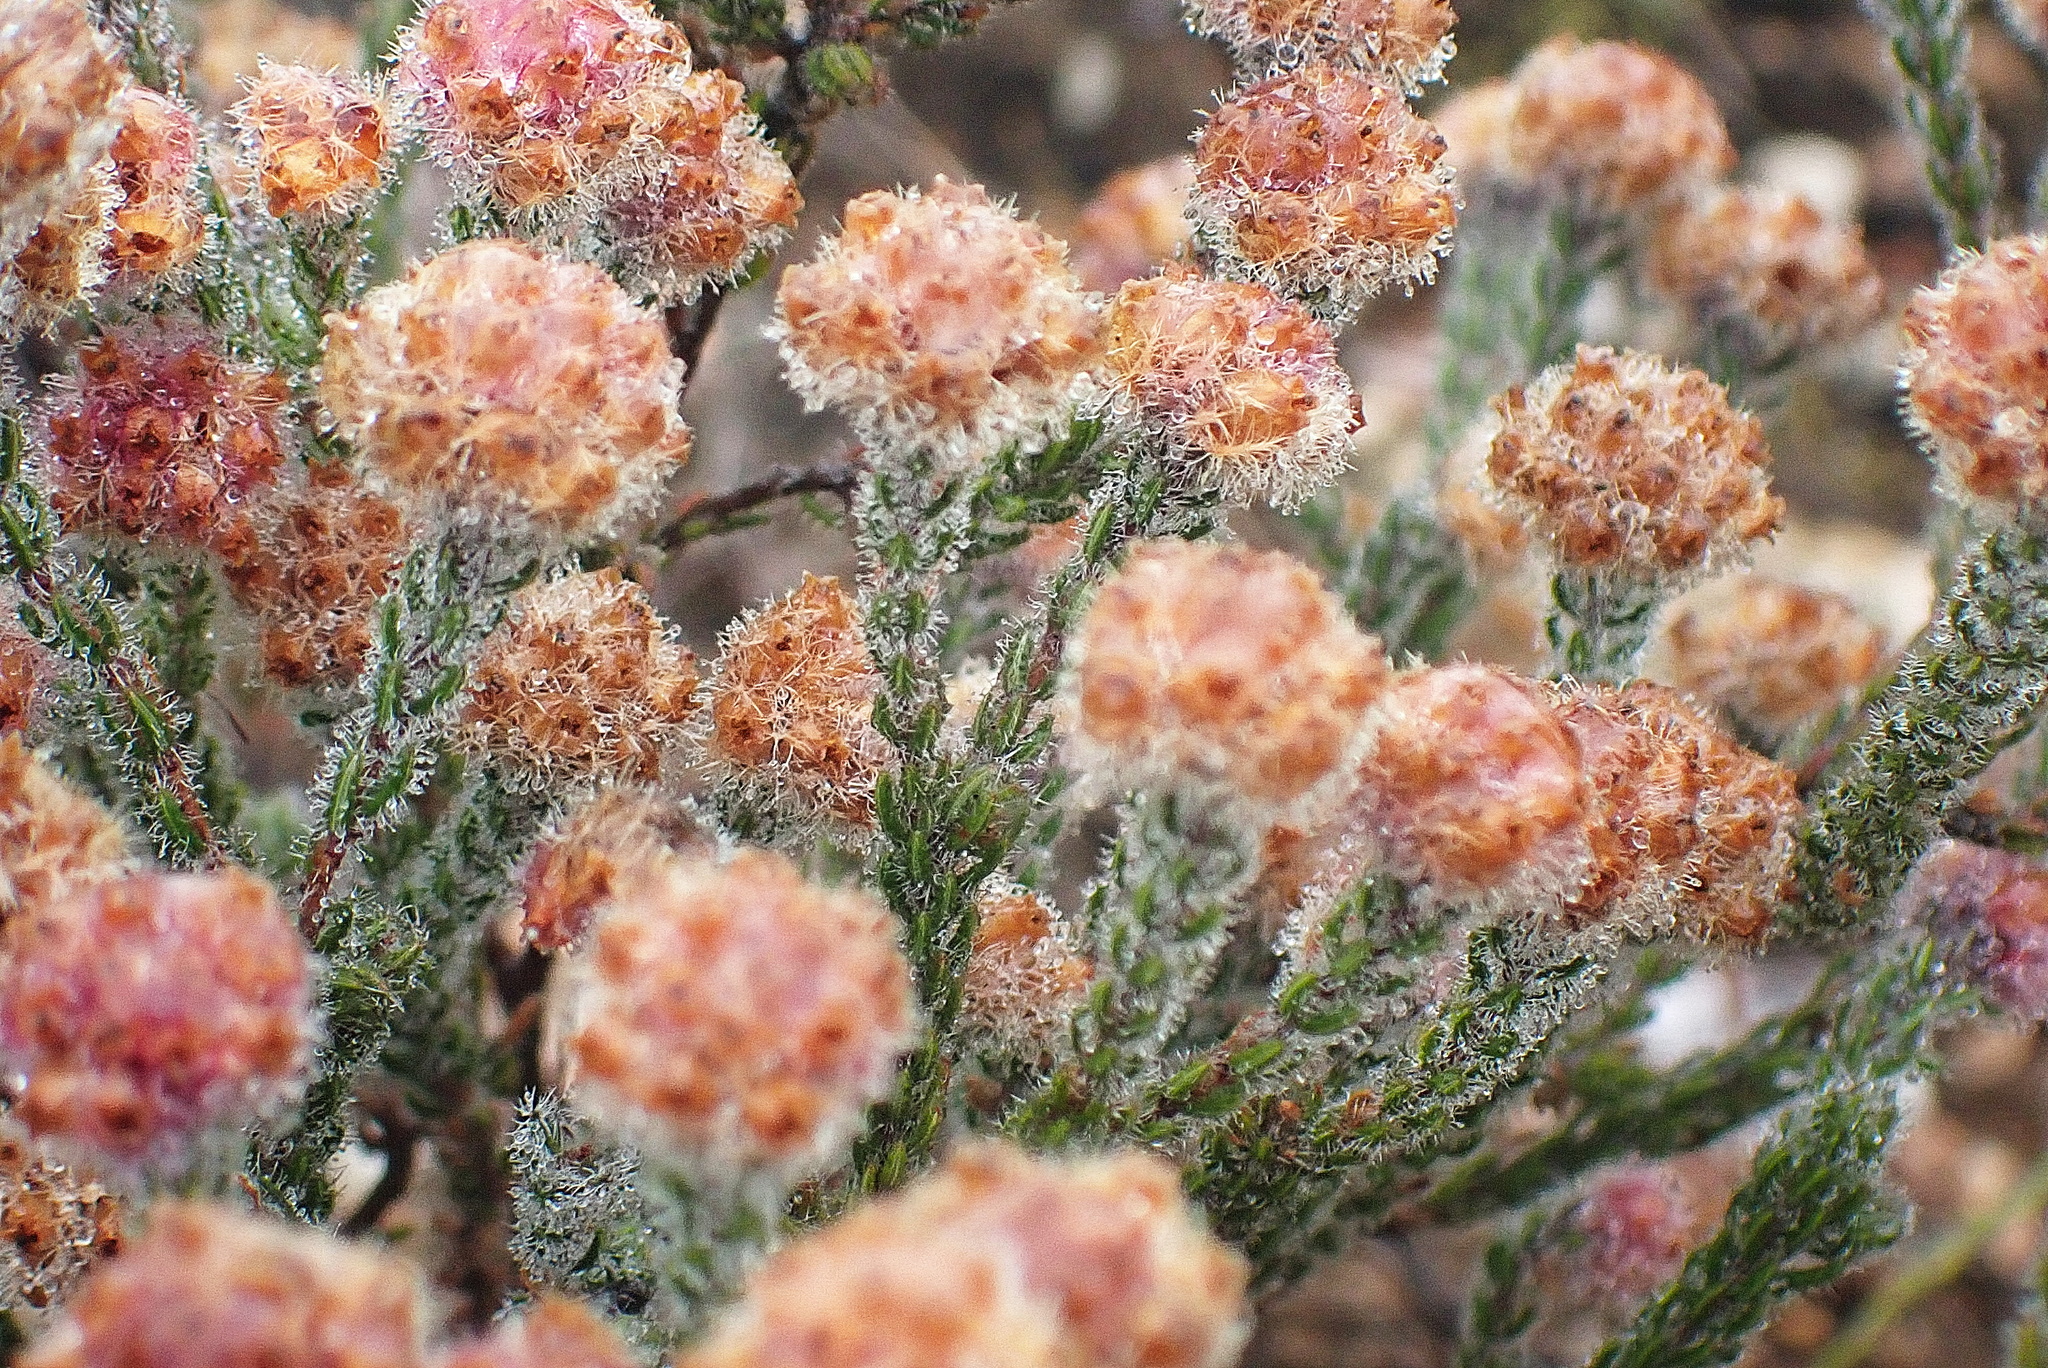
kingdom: Plantae
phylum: Tracheophyta
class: Magnoliopsida
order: Ericales
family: Ericaceae
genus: Erica
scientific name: Erica solandra
